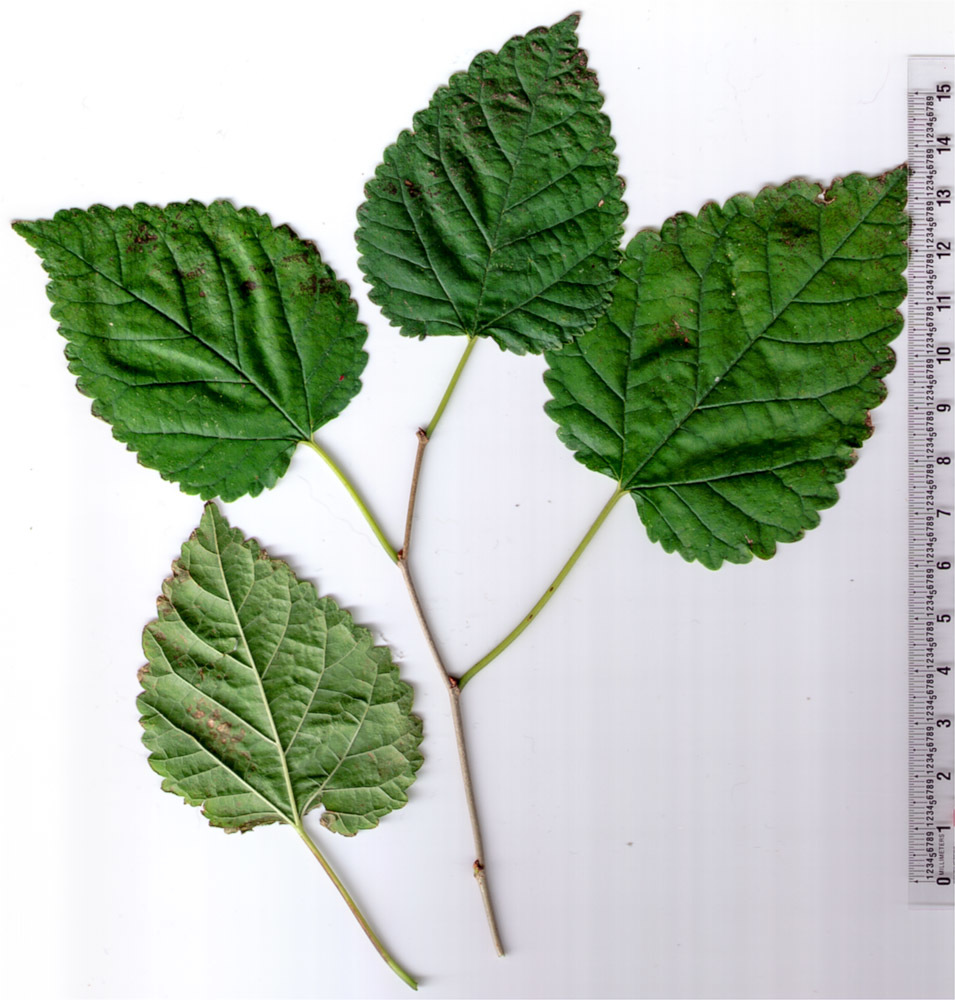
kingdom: Plantae
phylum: Tracheophyta
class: Magnoliopsida
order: Rosales
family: Moraceae
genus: Morus
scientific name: Morus alba
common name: White mulberry
